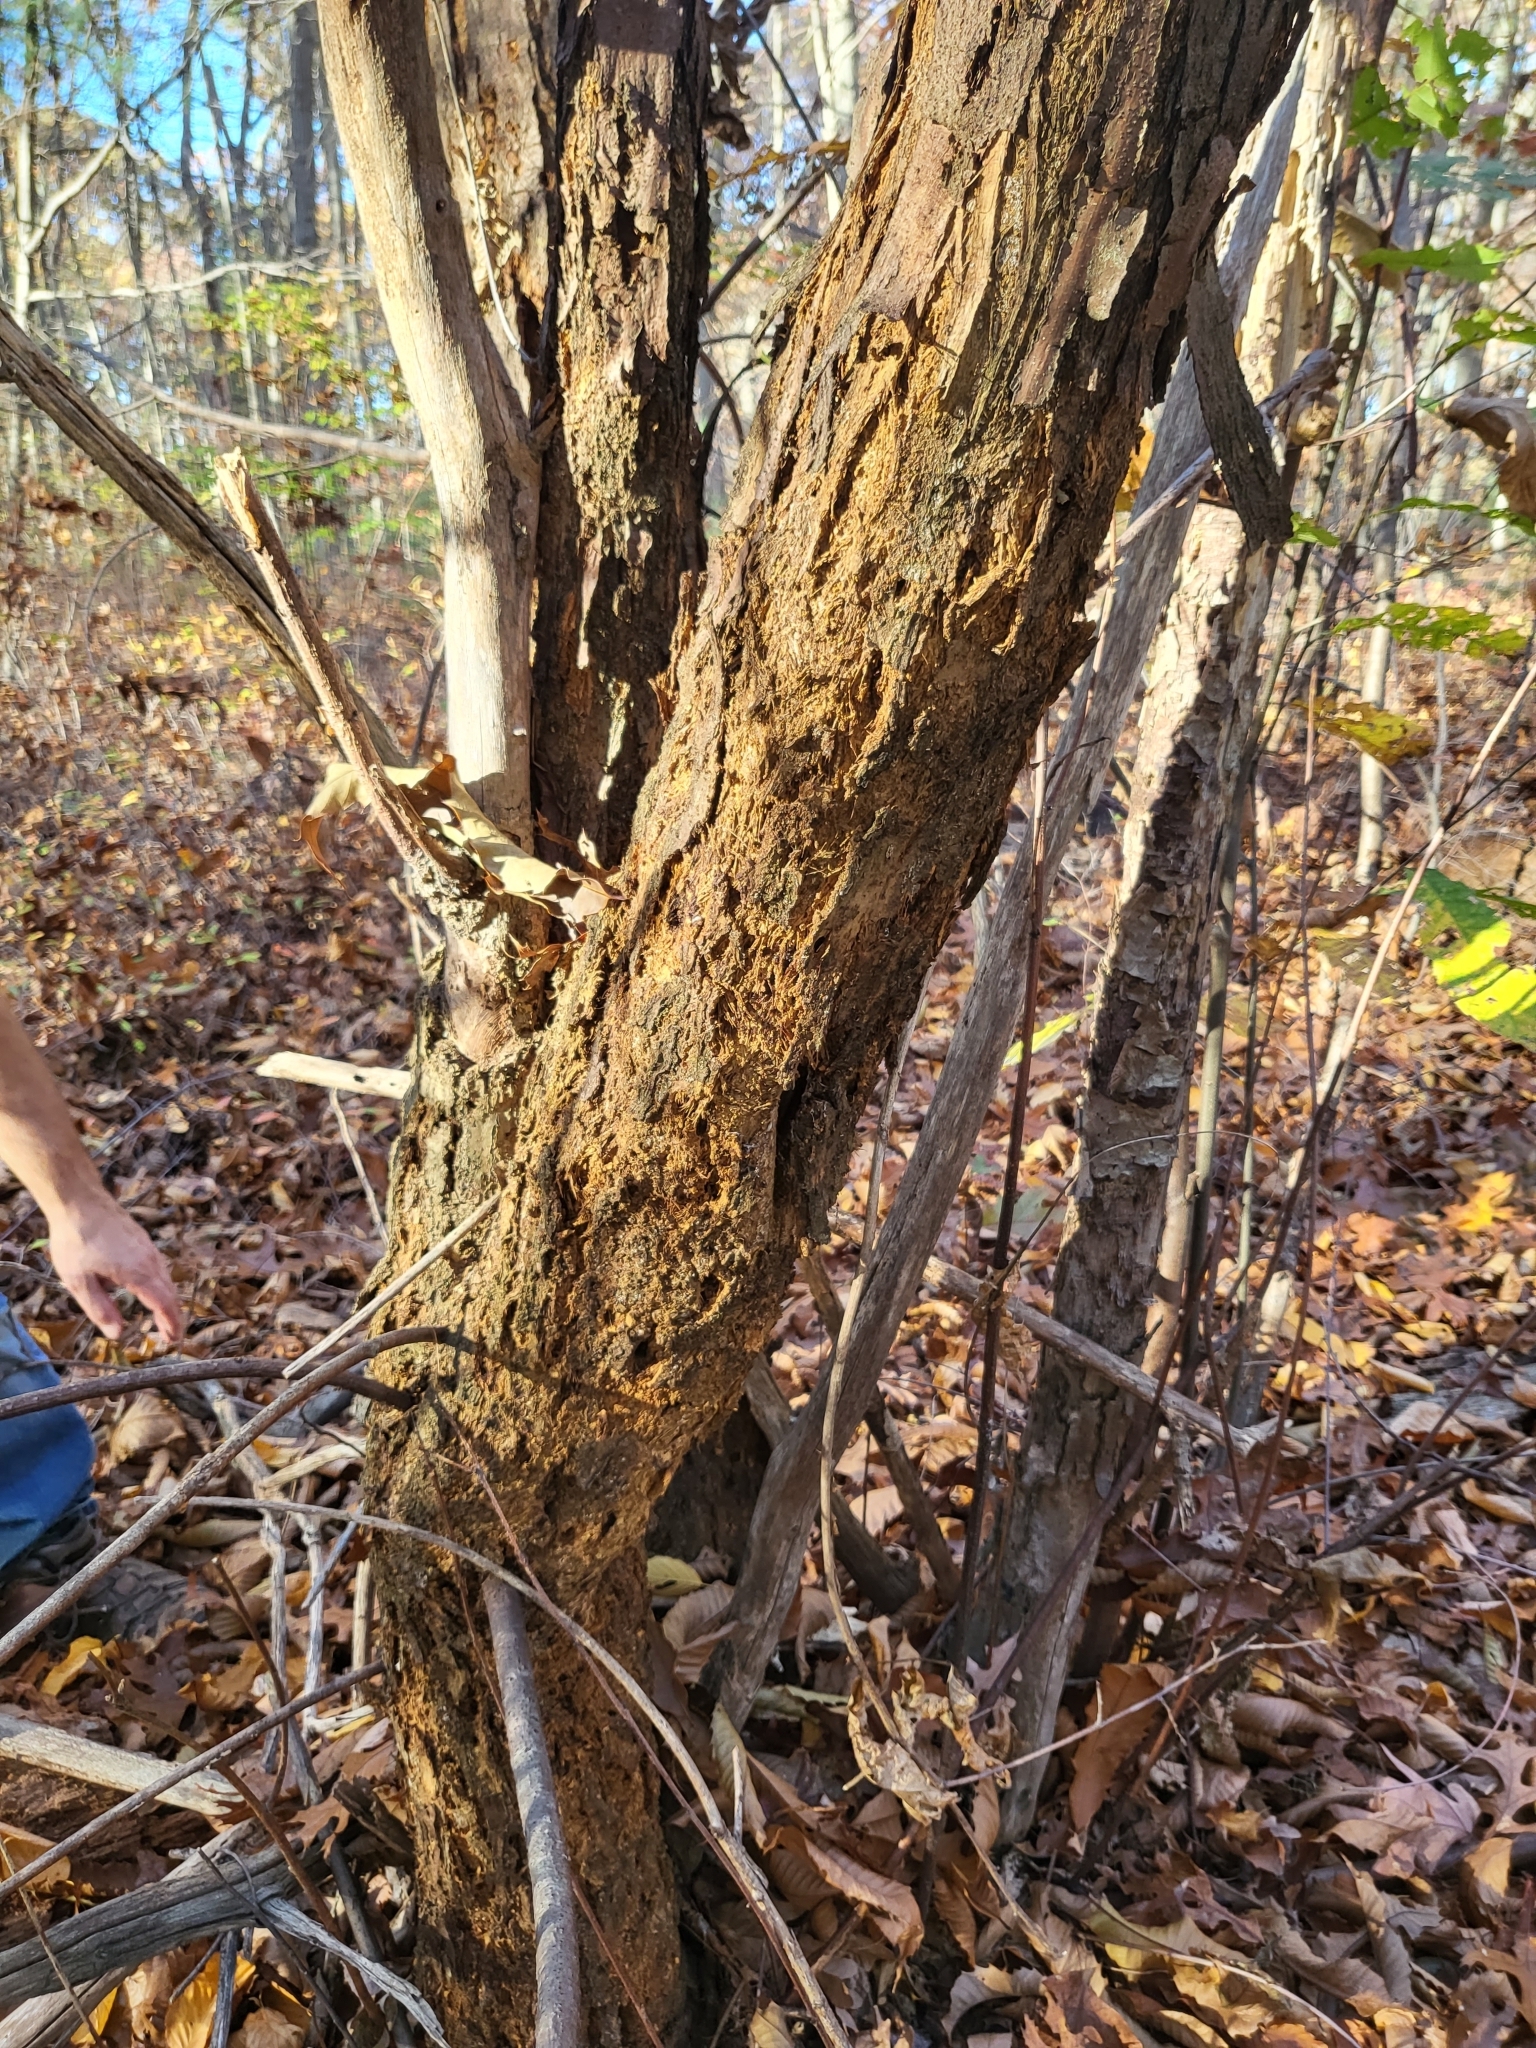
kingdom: Plantae
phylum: Tracheophyta
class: Magnoliopsida
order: Fagales
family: Fagaceae
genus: Castanea
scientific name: Castanea dentata
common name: American chestnut
